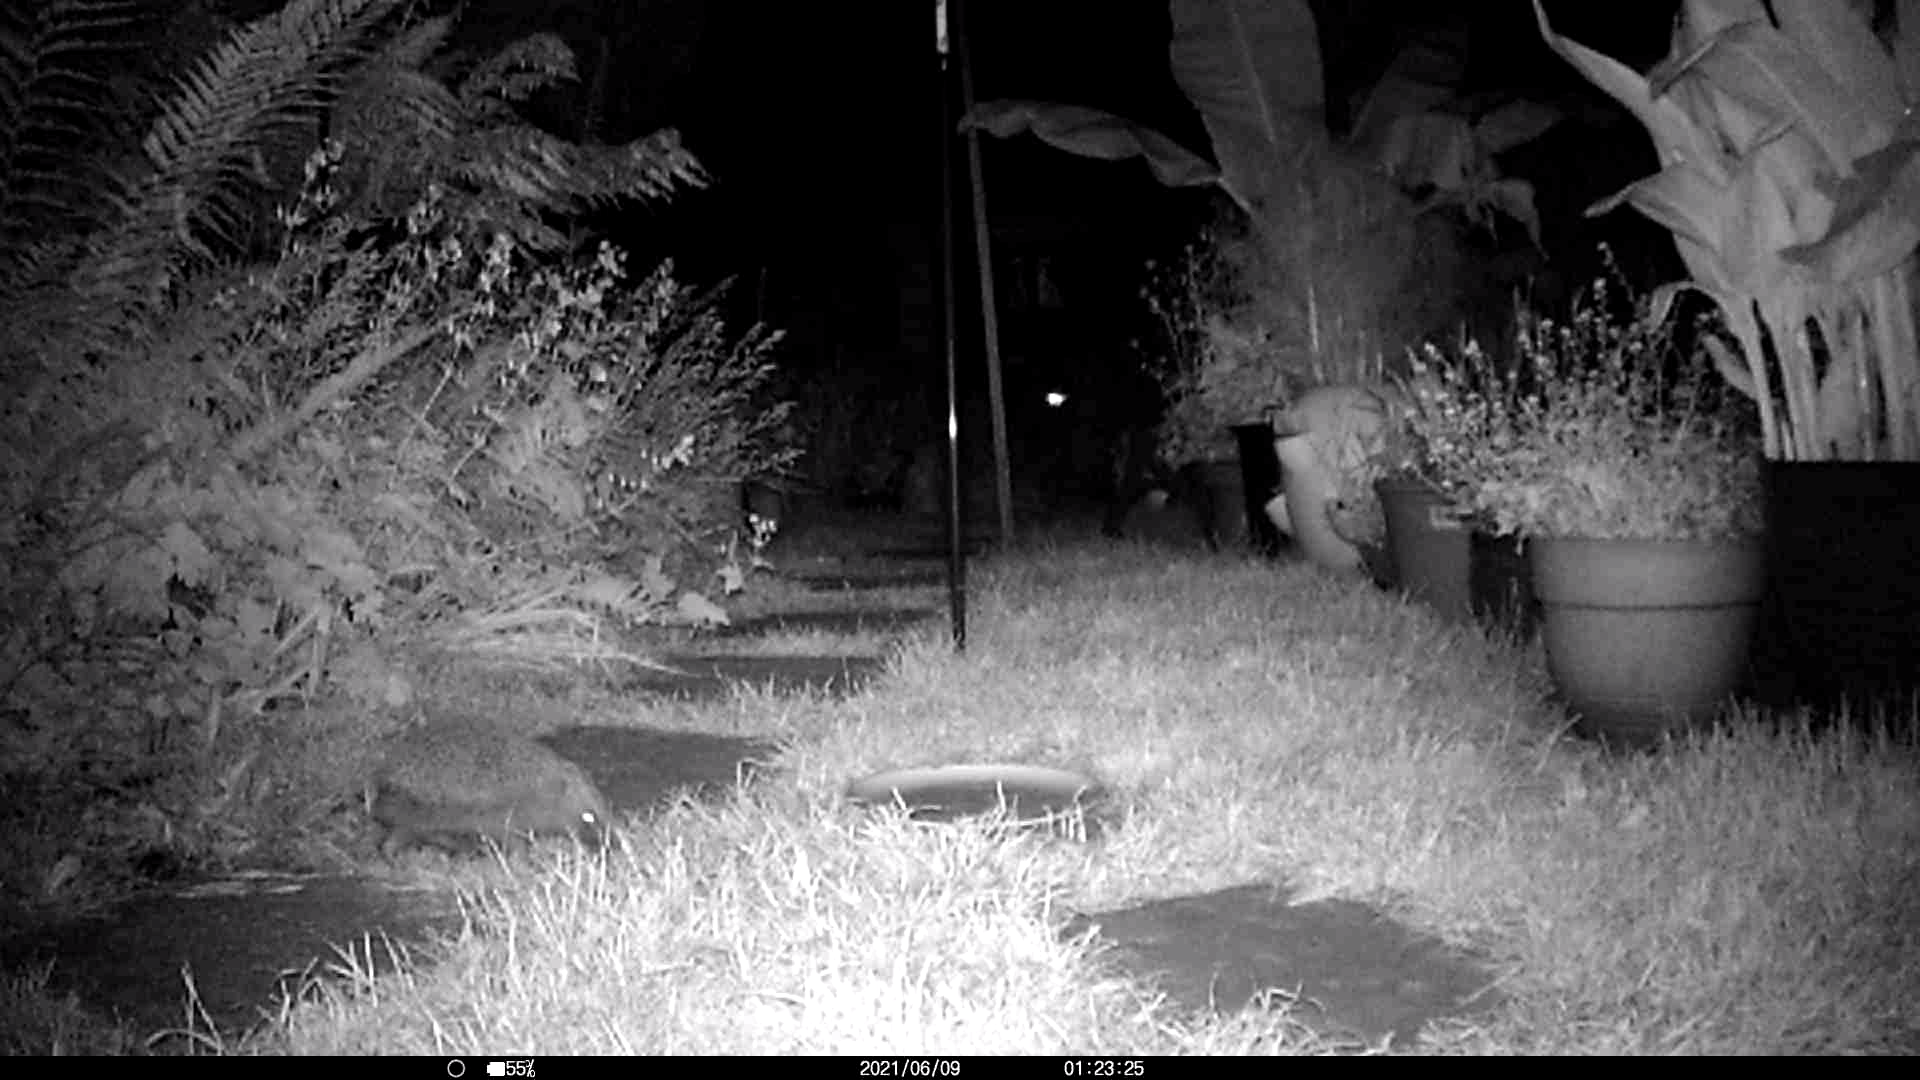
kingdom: Animalia
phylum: Chordata
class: Mammalia
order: Erinaceomorpha
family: Erinaceidae
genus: Erinaceus
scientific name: Erinaceus europaeus
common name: West european hedgehog
